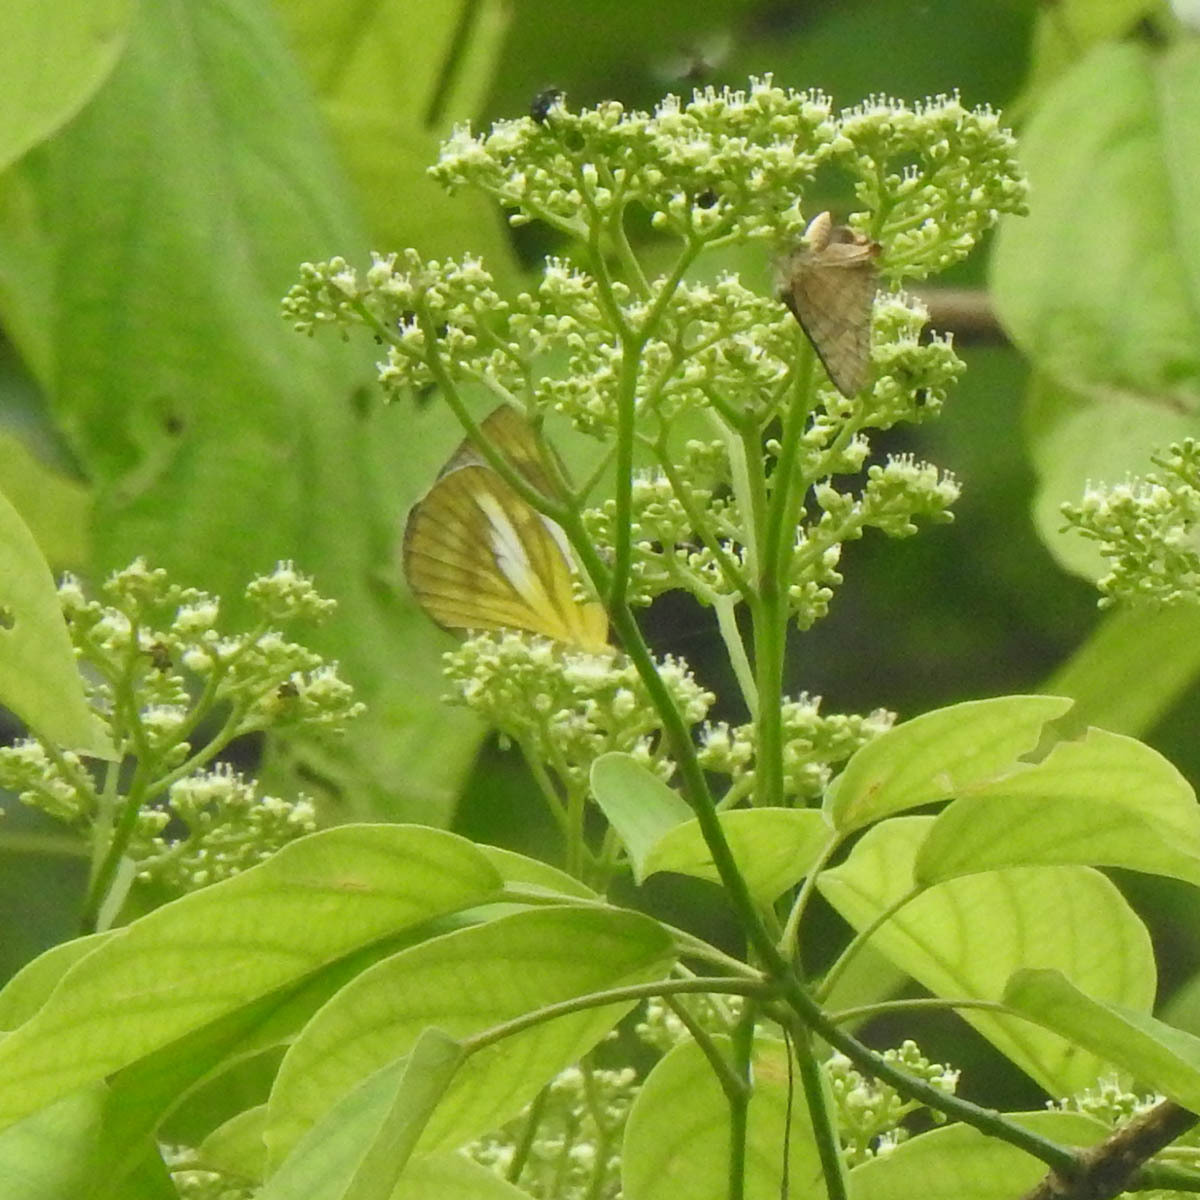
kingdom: Animalia
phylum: Arthropoda
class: Insecta
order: Lepidoptera
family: Pieridae
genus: Cepora
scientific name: Cepora nadina
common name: Lesser gull
